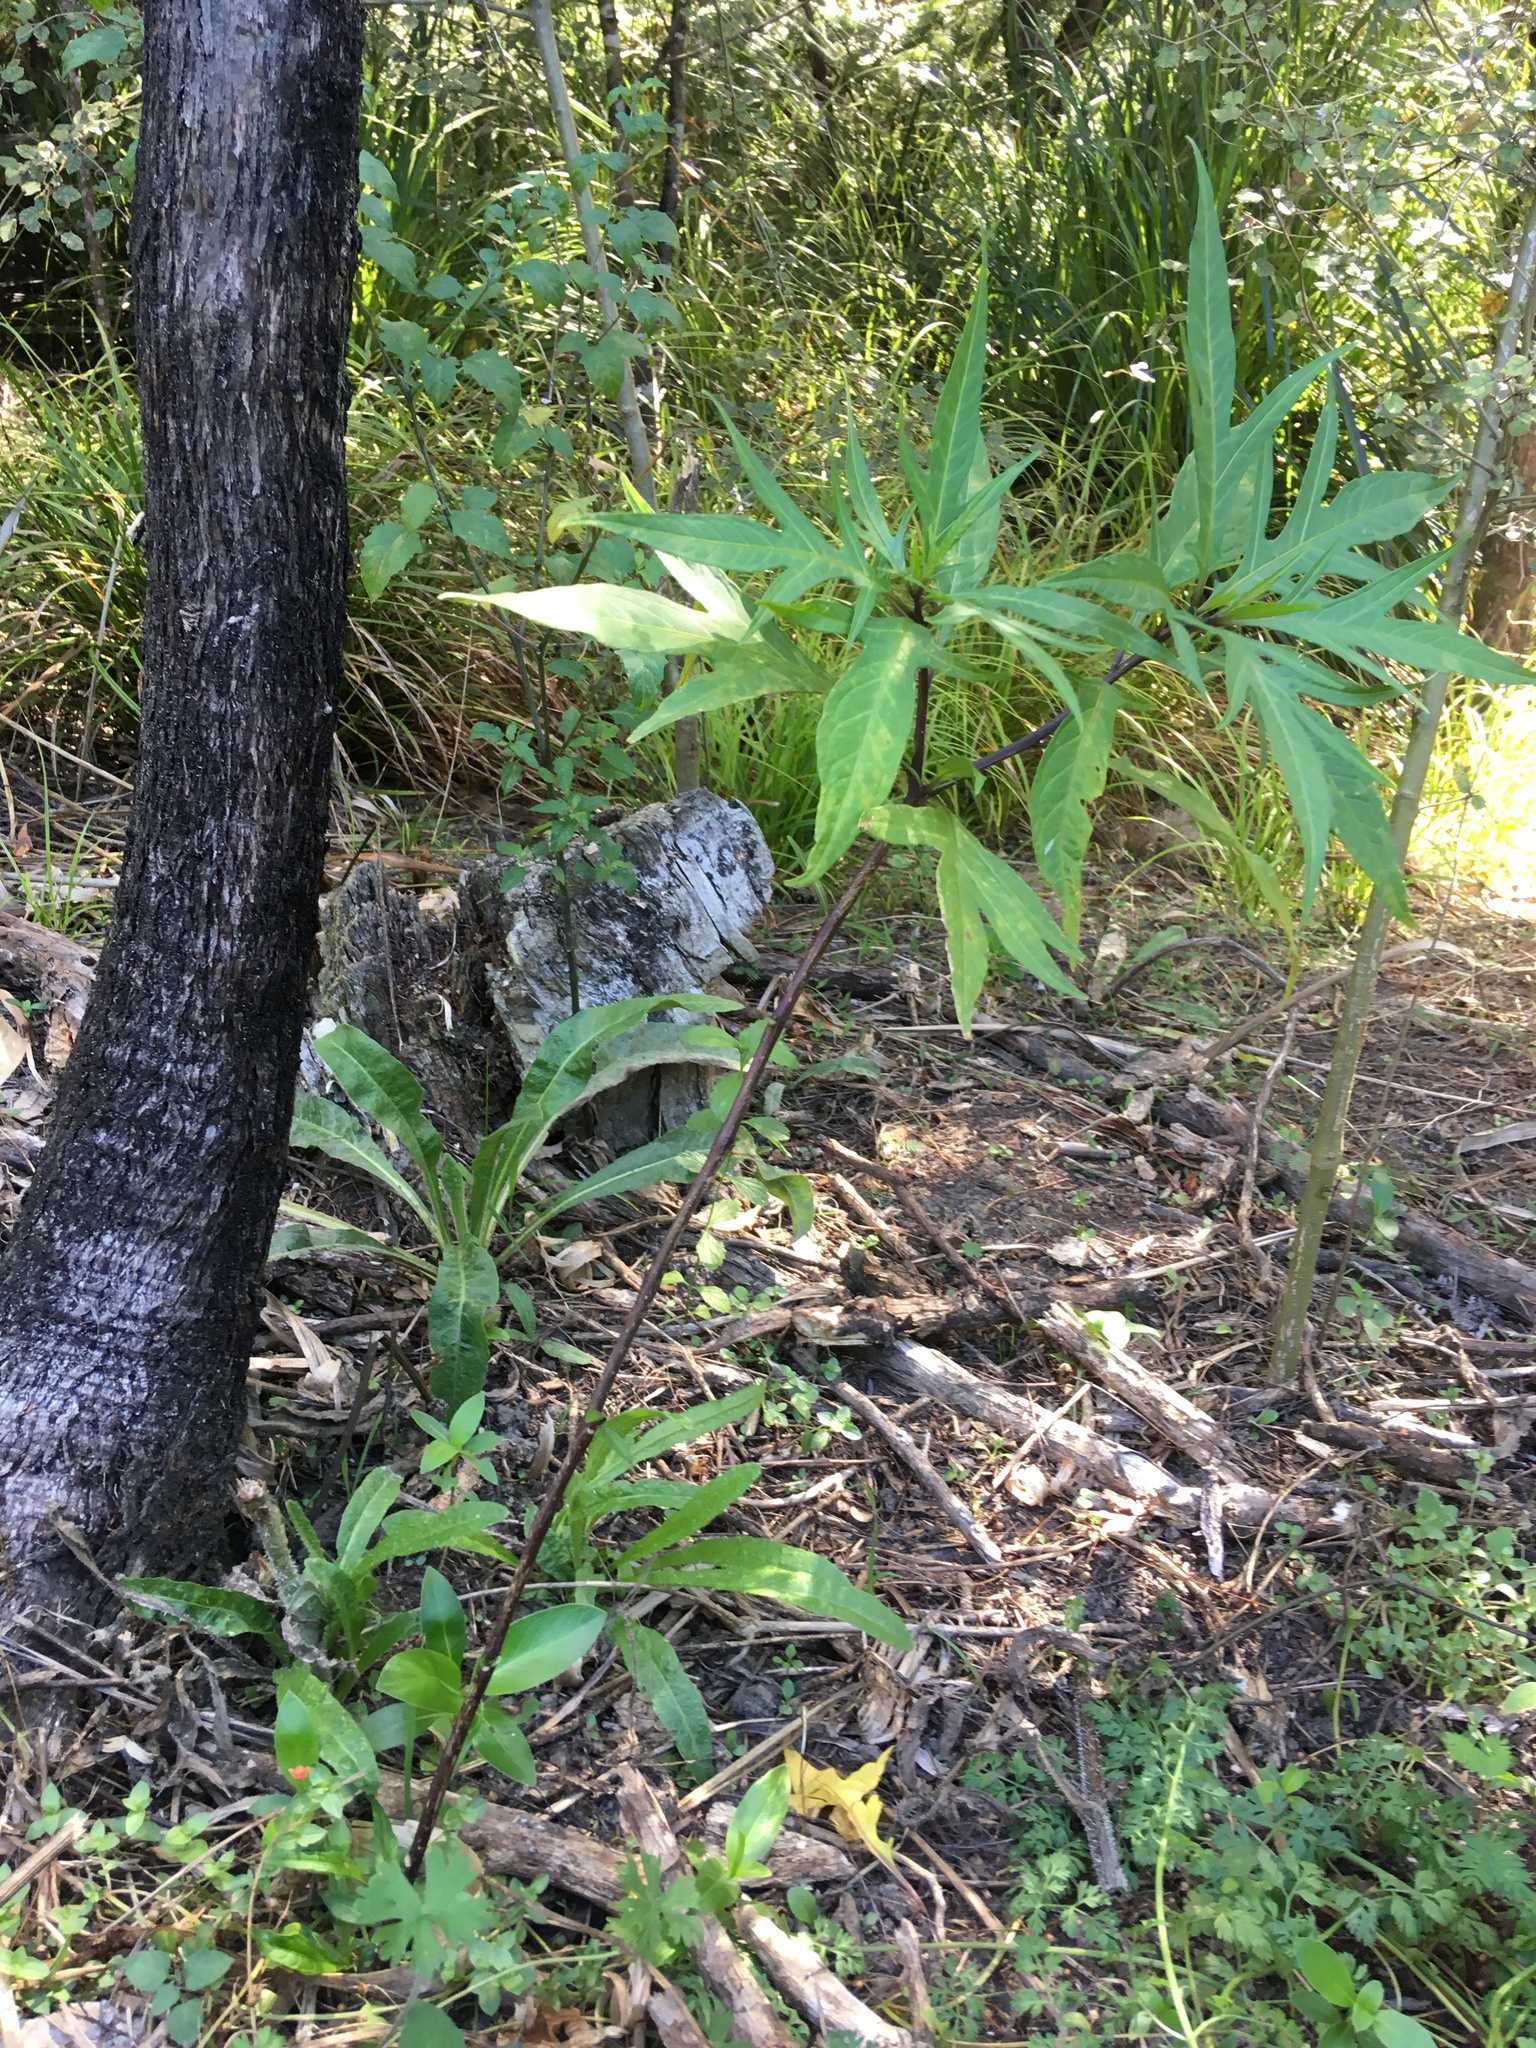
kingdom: Plantae
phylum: Tracheophyta
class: Magnoliopsida
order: Solanales
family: Solanaceae
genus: Solanum
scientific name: Solanum laciniatum
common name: Kangaroo-apple
